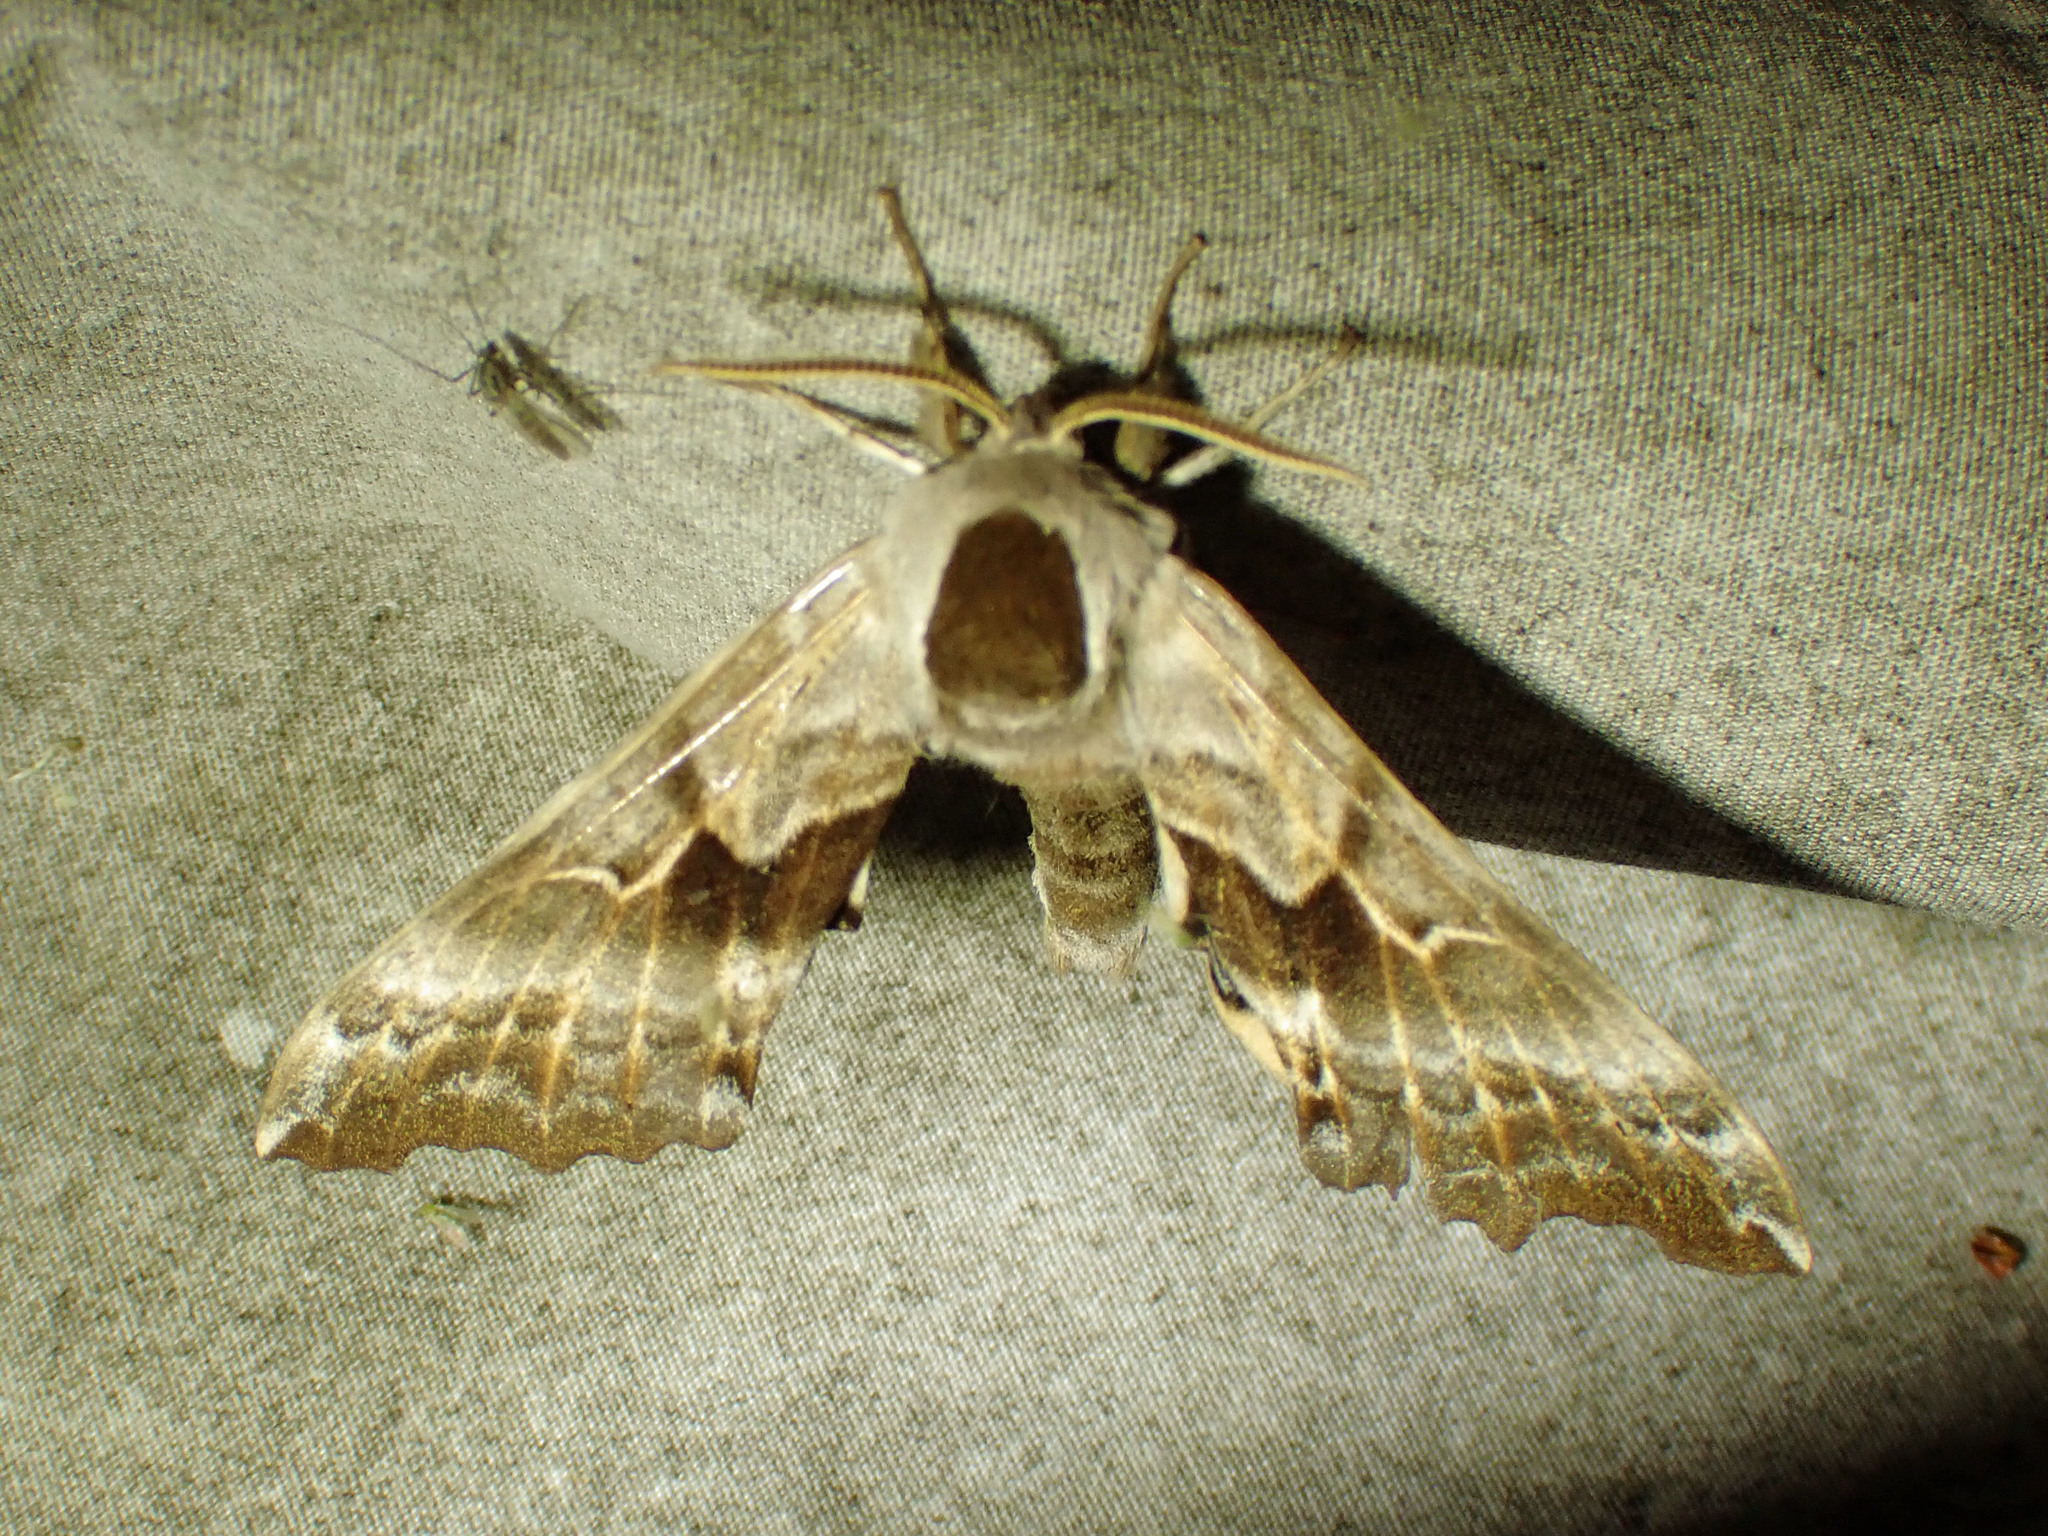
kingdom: Animalia
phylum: Arthropoda
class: Insecta
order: Lepidoptera
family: Sphingidae
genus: Smerinthus
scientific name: Smerinthus cerisyi
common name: Cerisy's sphinx moth
